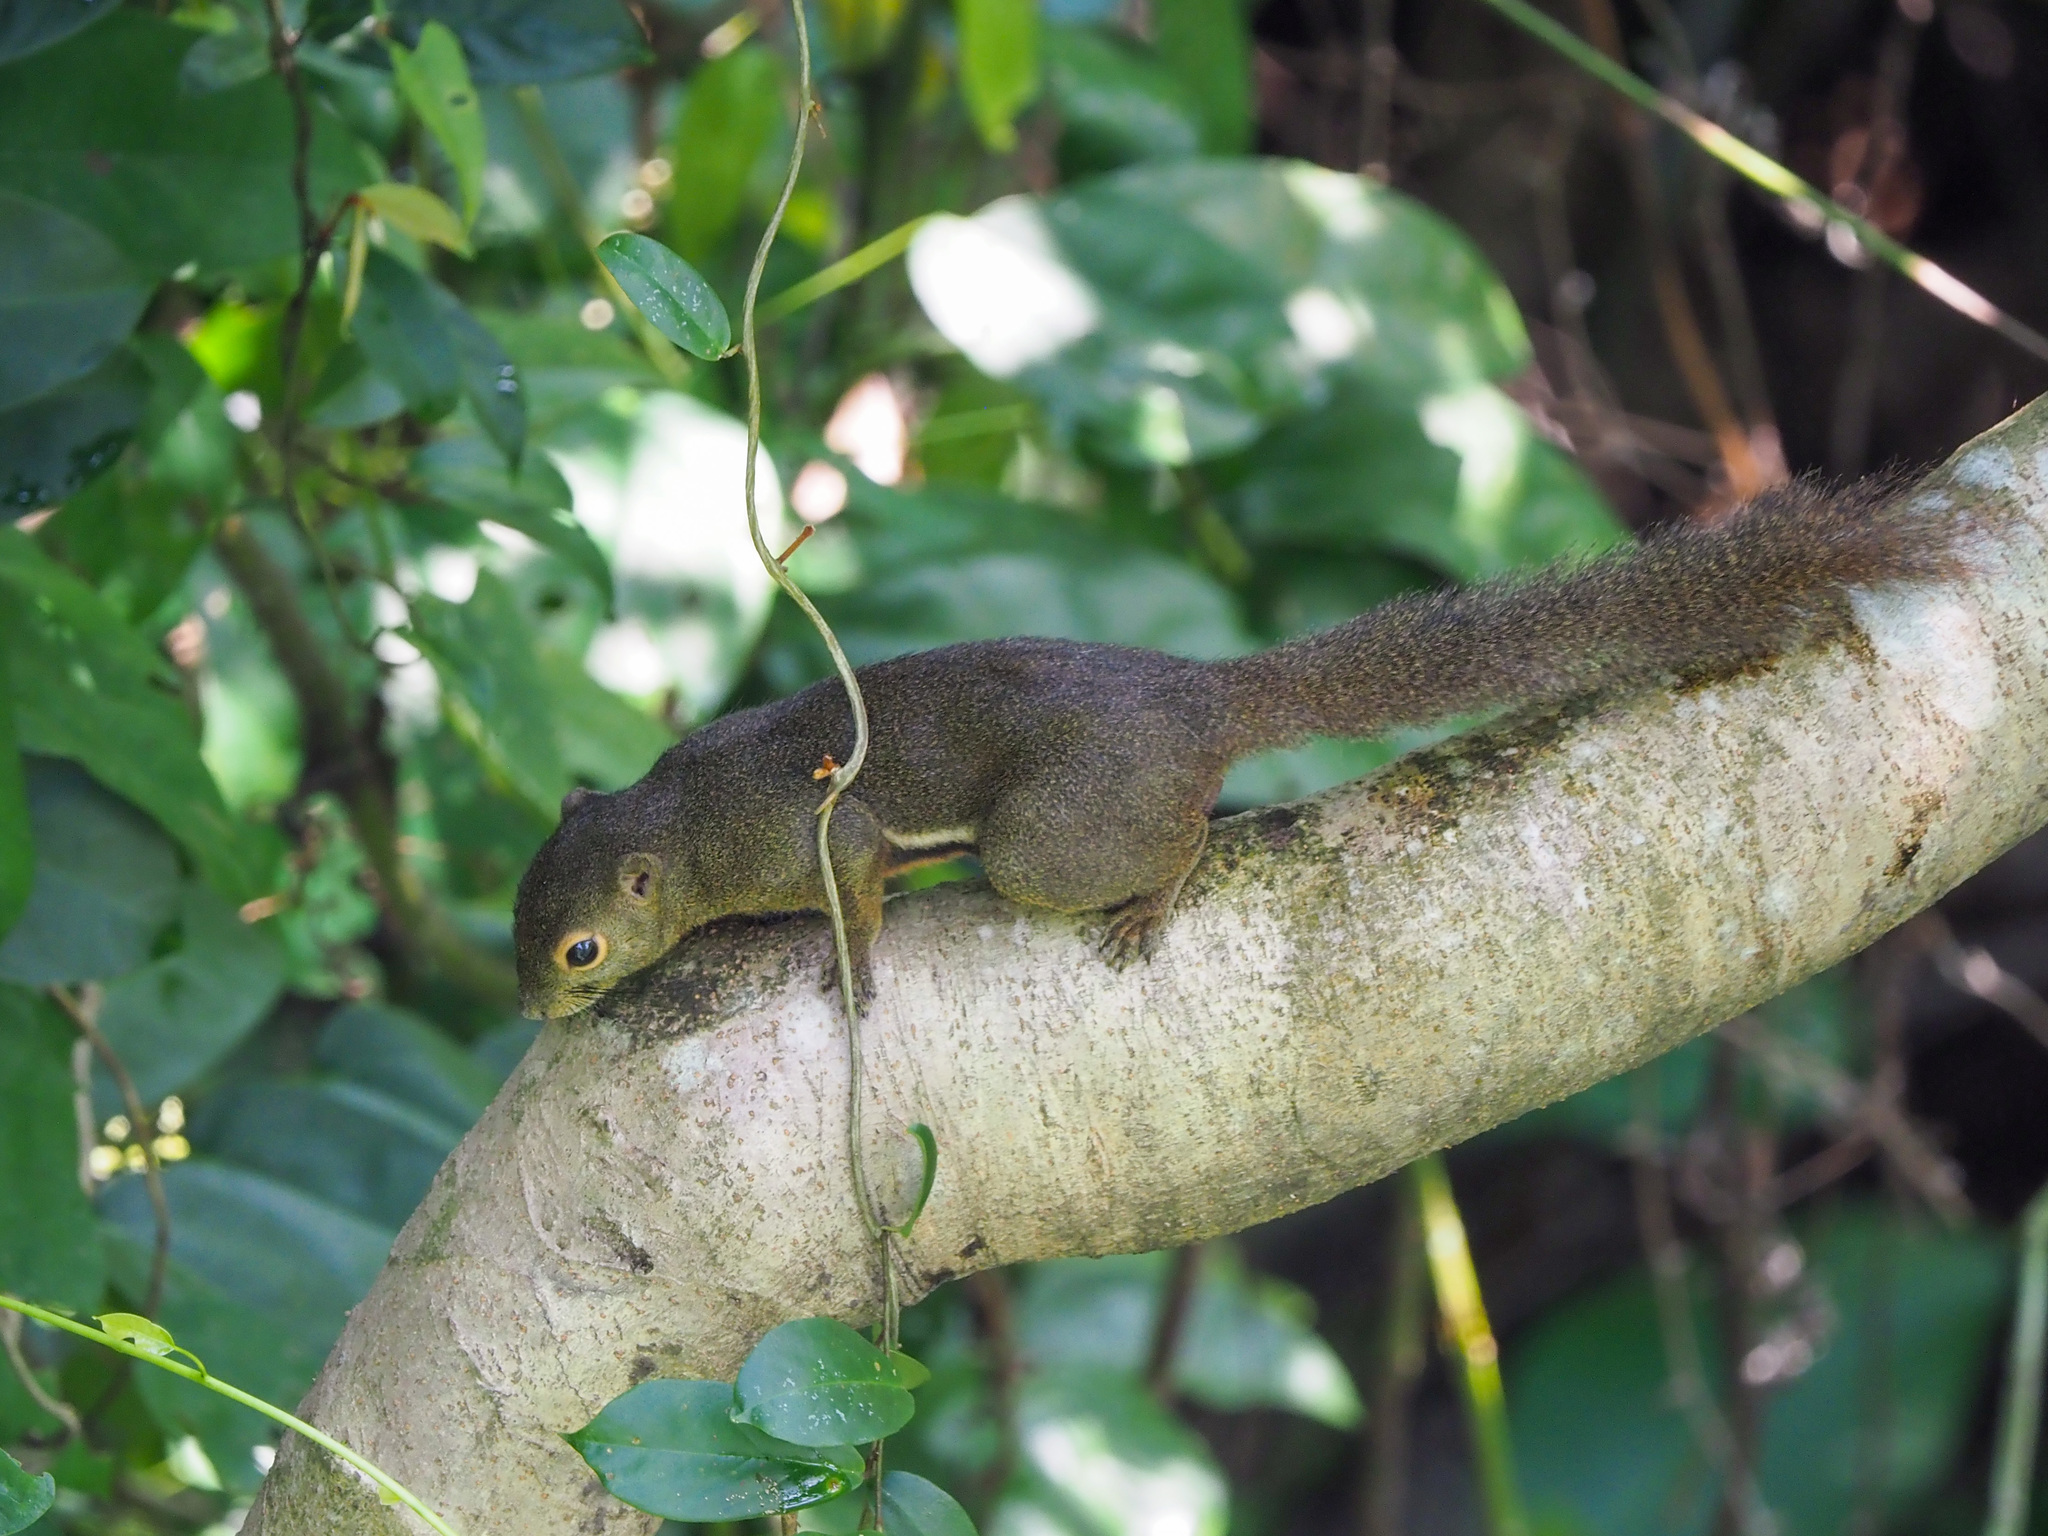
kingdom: Animalia
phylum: Chordata
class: Mammalia
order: Rodentia
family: Sciuridae
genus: Callosciurus
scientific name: Callosciurus notatus
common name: Plantain squirrel
